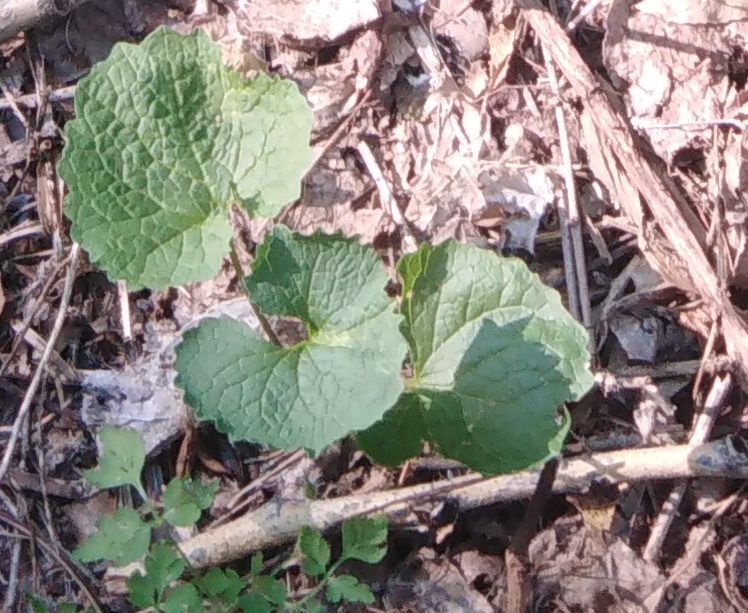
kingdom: Plantae
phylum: Tracheophyta
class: Magnoliopsida
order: Brassicales
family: Brassicaceae
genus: Alliaria
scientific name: Alliaria petiolata
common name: Garlic mustard
